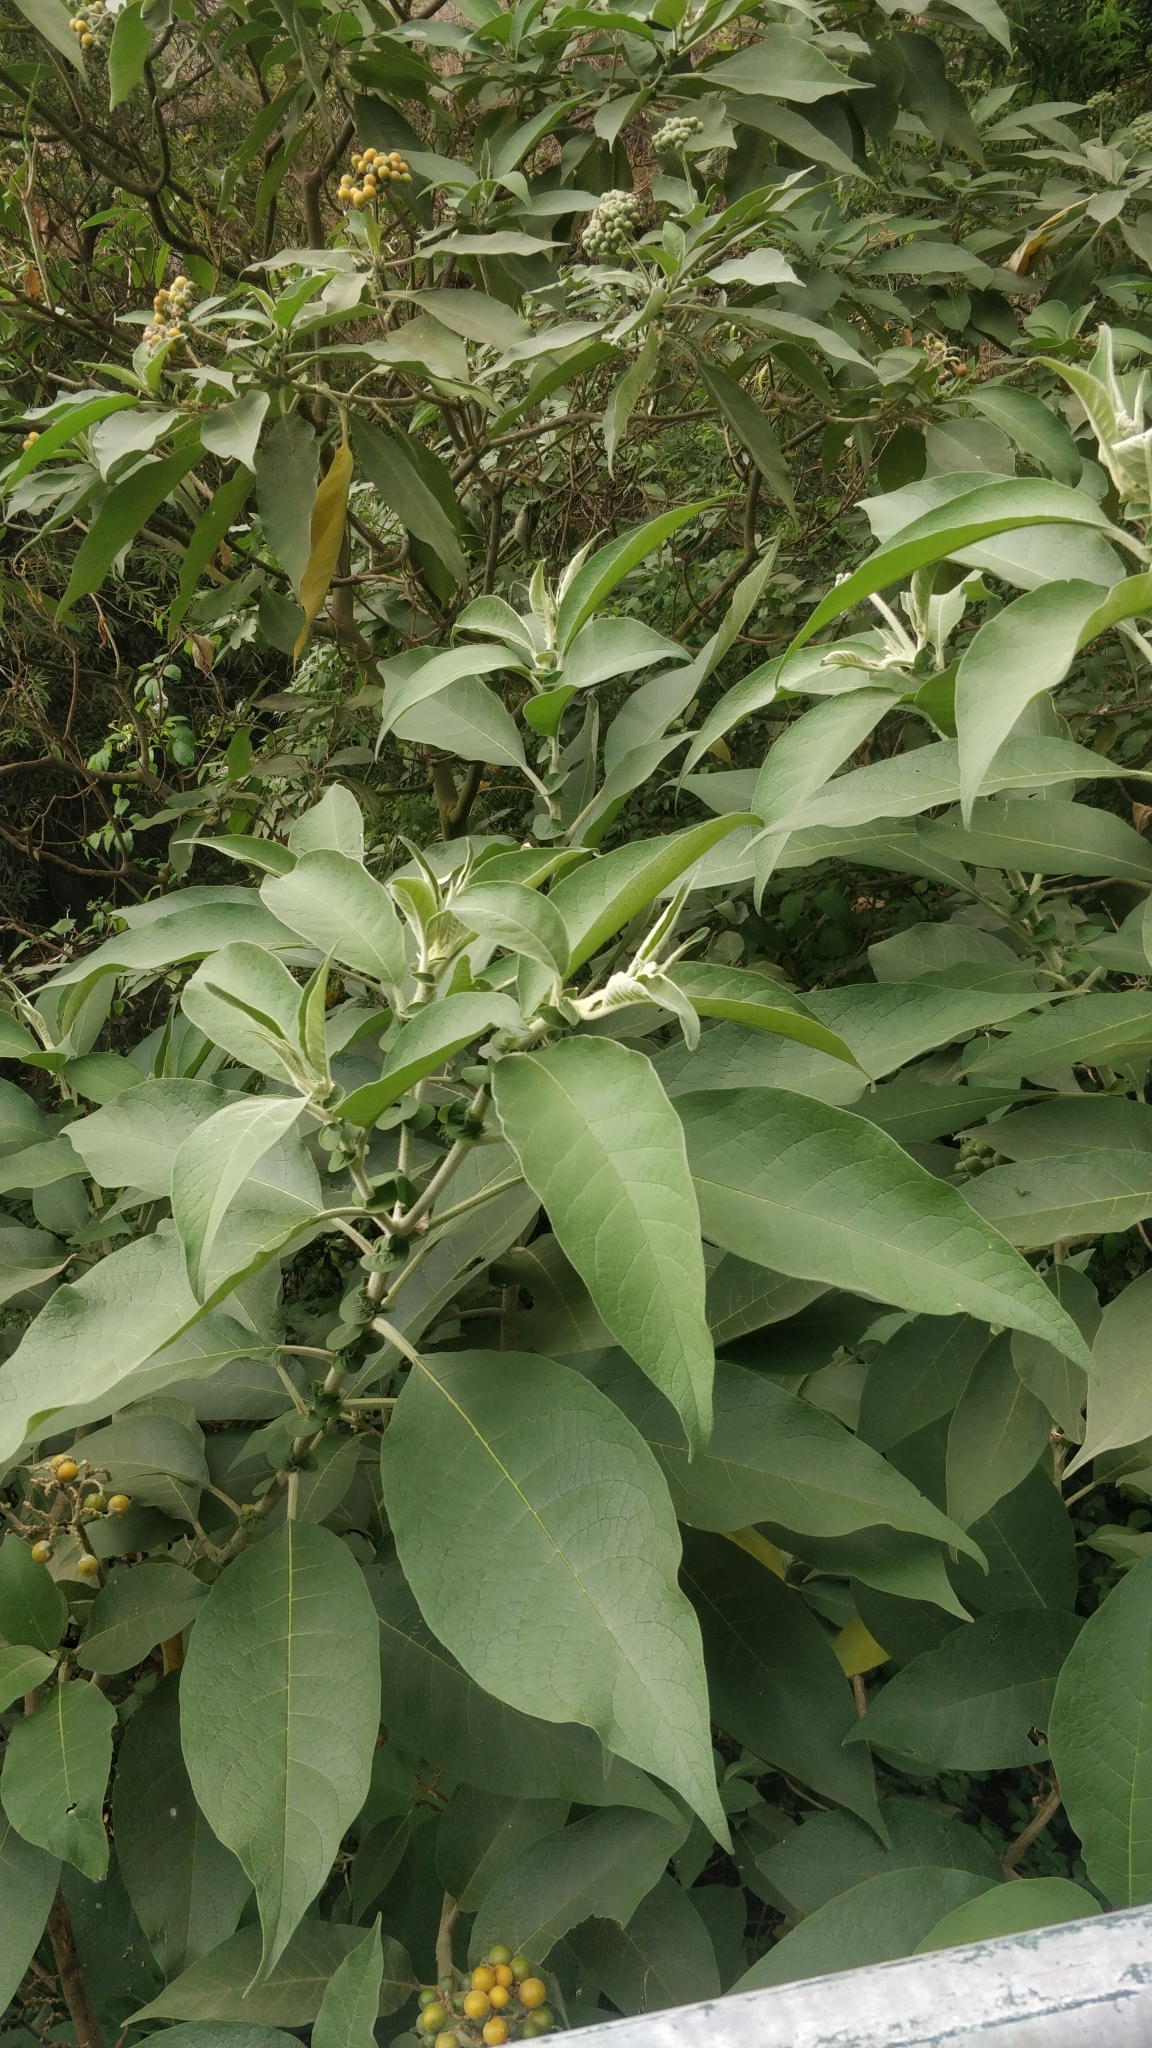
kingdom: Plantae
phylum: Tracheophyta
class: Magnoliopsida
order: Solanales
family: Solanaceae
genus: Solanum
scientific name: Solanum mauritianum
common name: Earleaf nightshade
